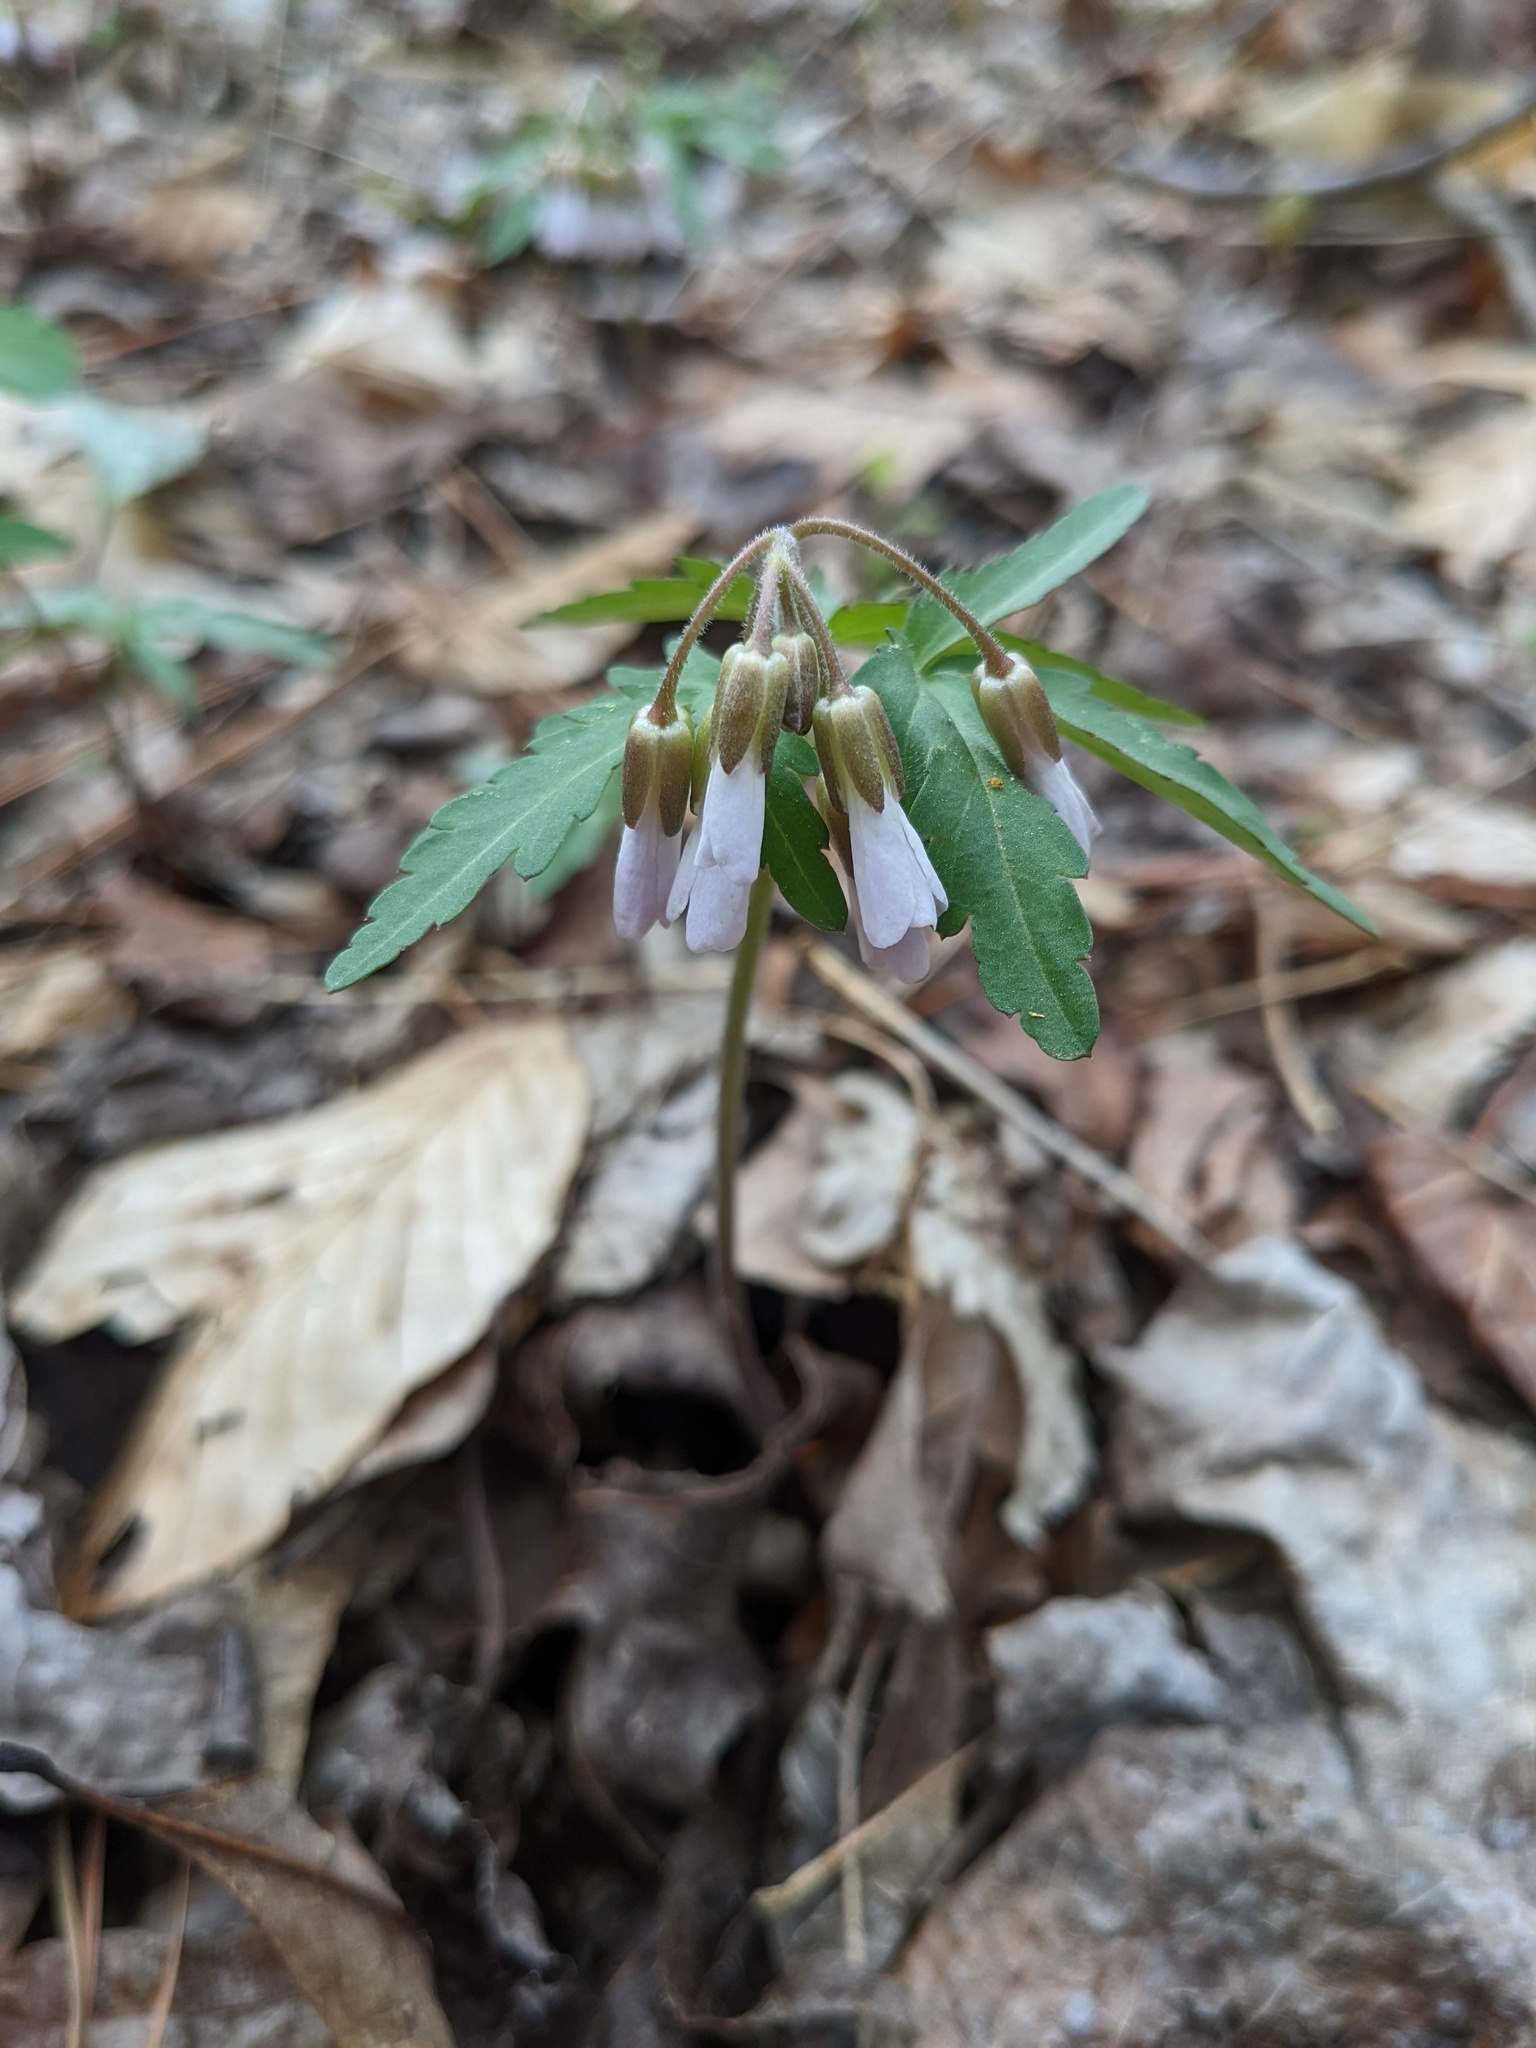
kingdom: Plantae
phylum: Tracheophyta
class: Magnoliopsida
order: Brassicales
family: Brassicaceae
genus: Cardamine
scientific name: Cardamine concatenata
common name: Cut-leaf toothcup
